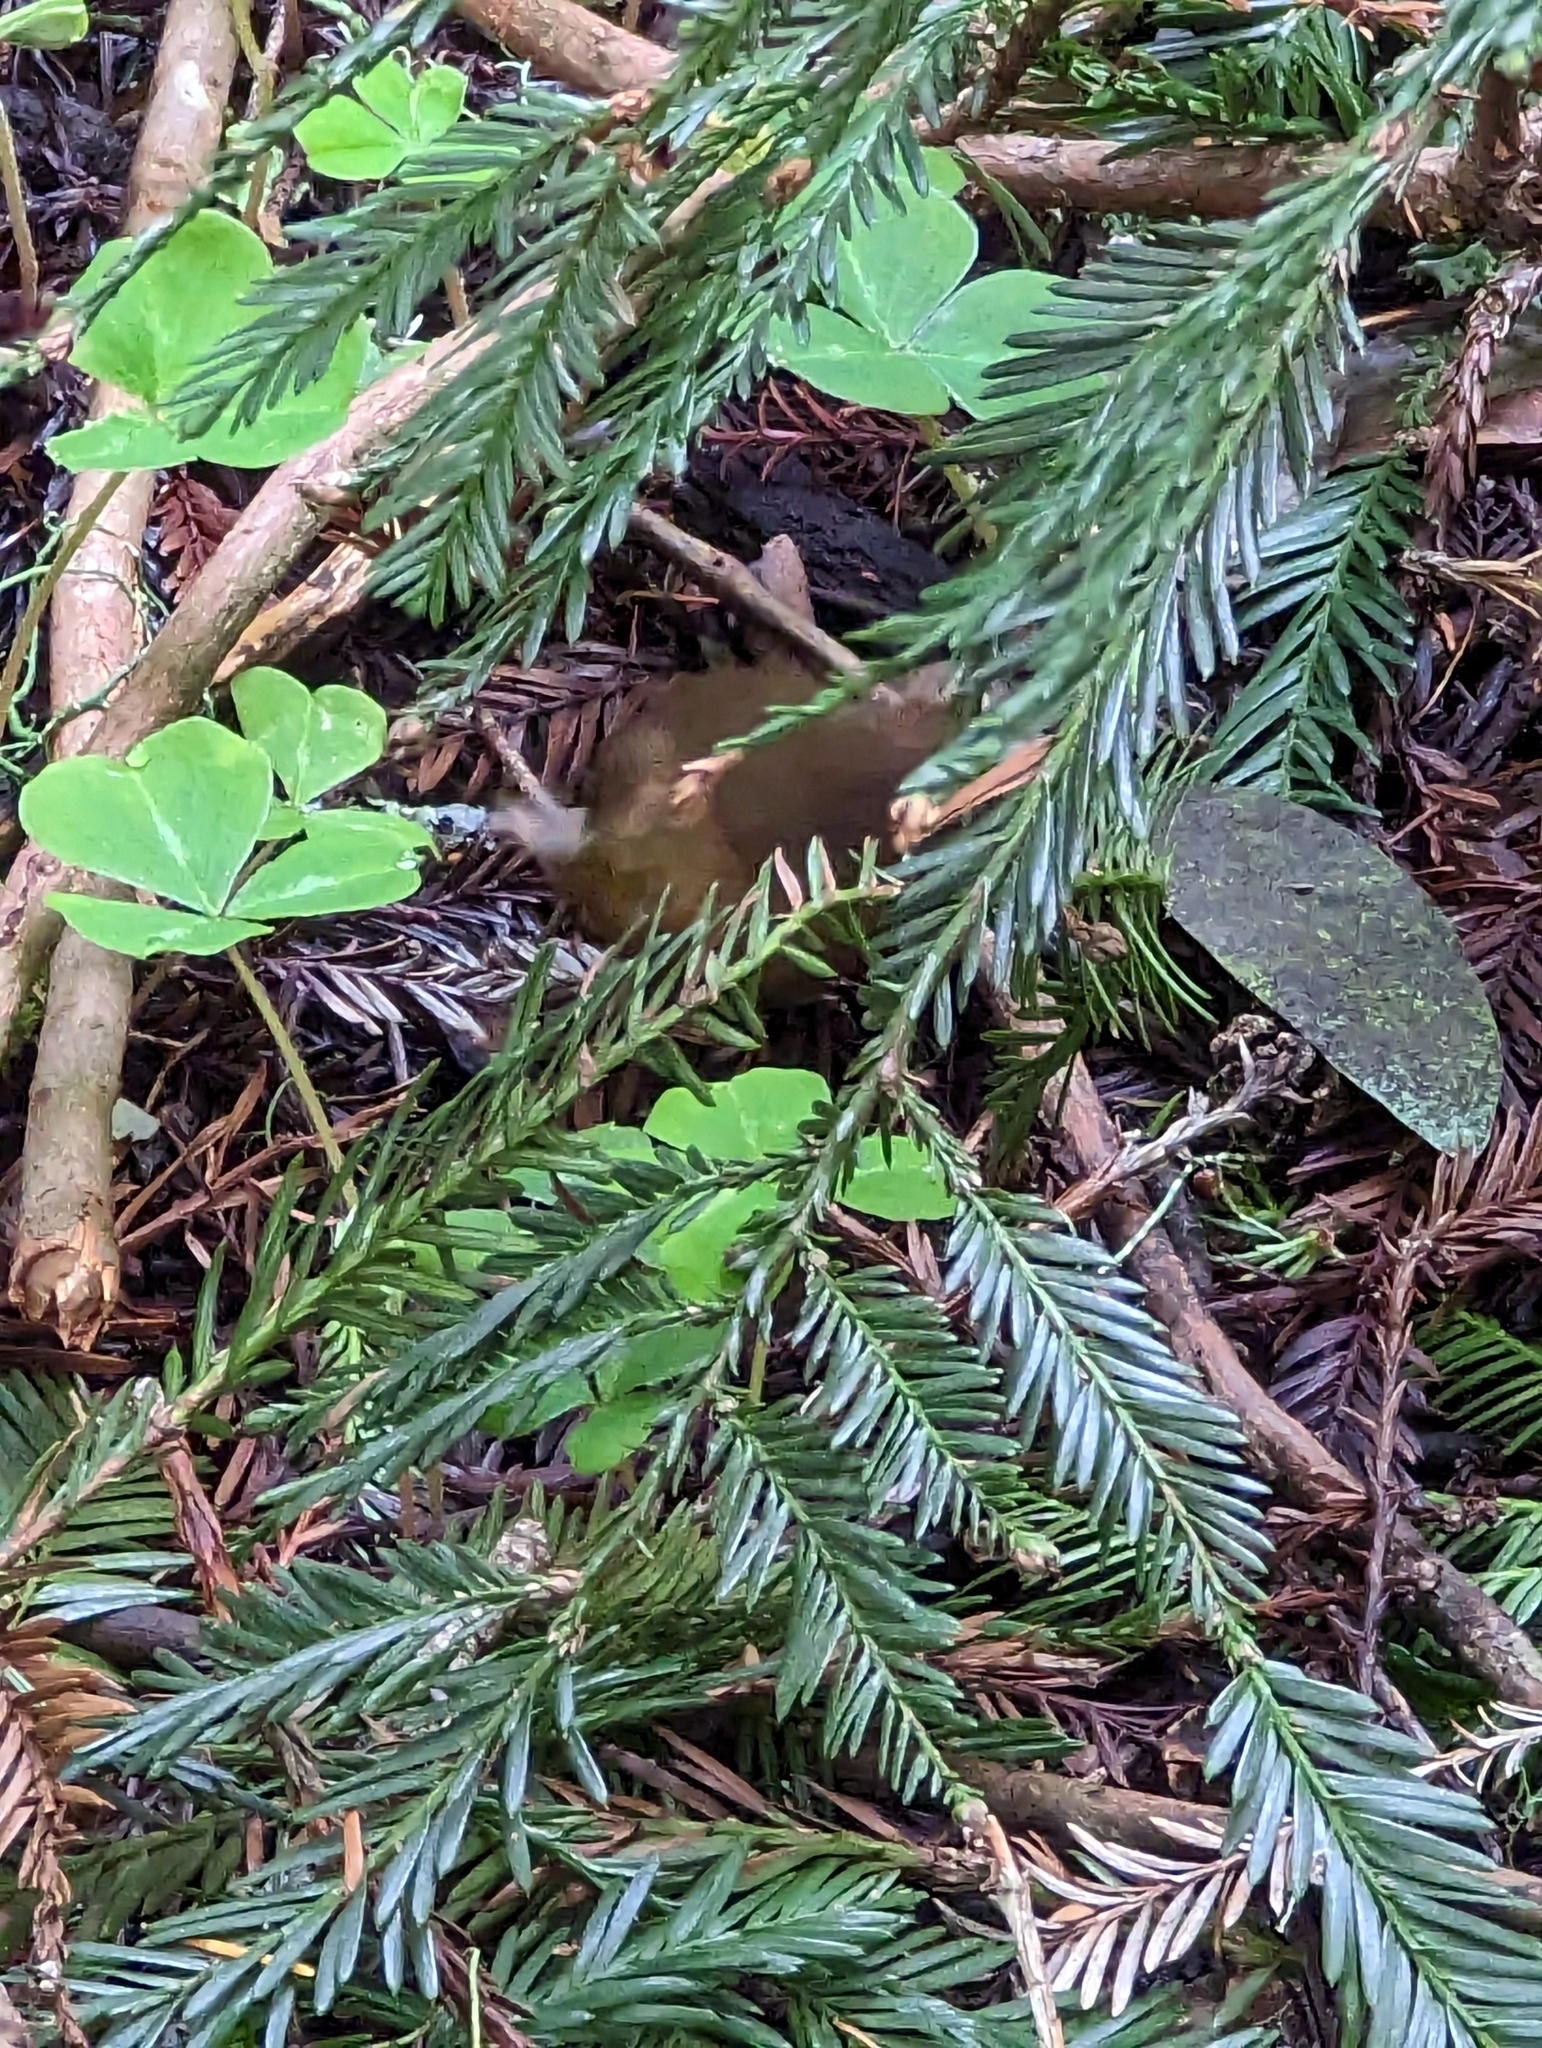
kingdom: Plantae
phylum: Tracheophyta
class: Pinopsida
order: Pinales
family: Cupressaceae
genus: Sequoia
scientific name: Sequoia sempervirens
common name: Coast redwood
